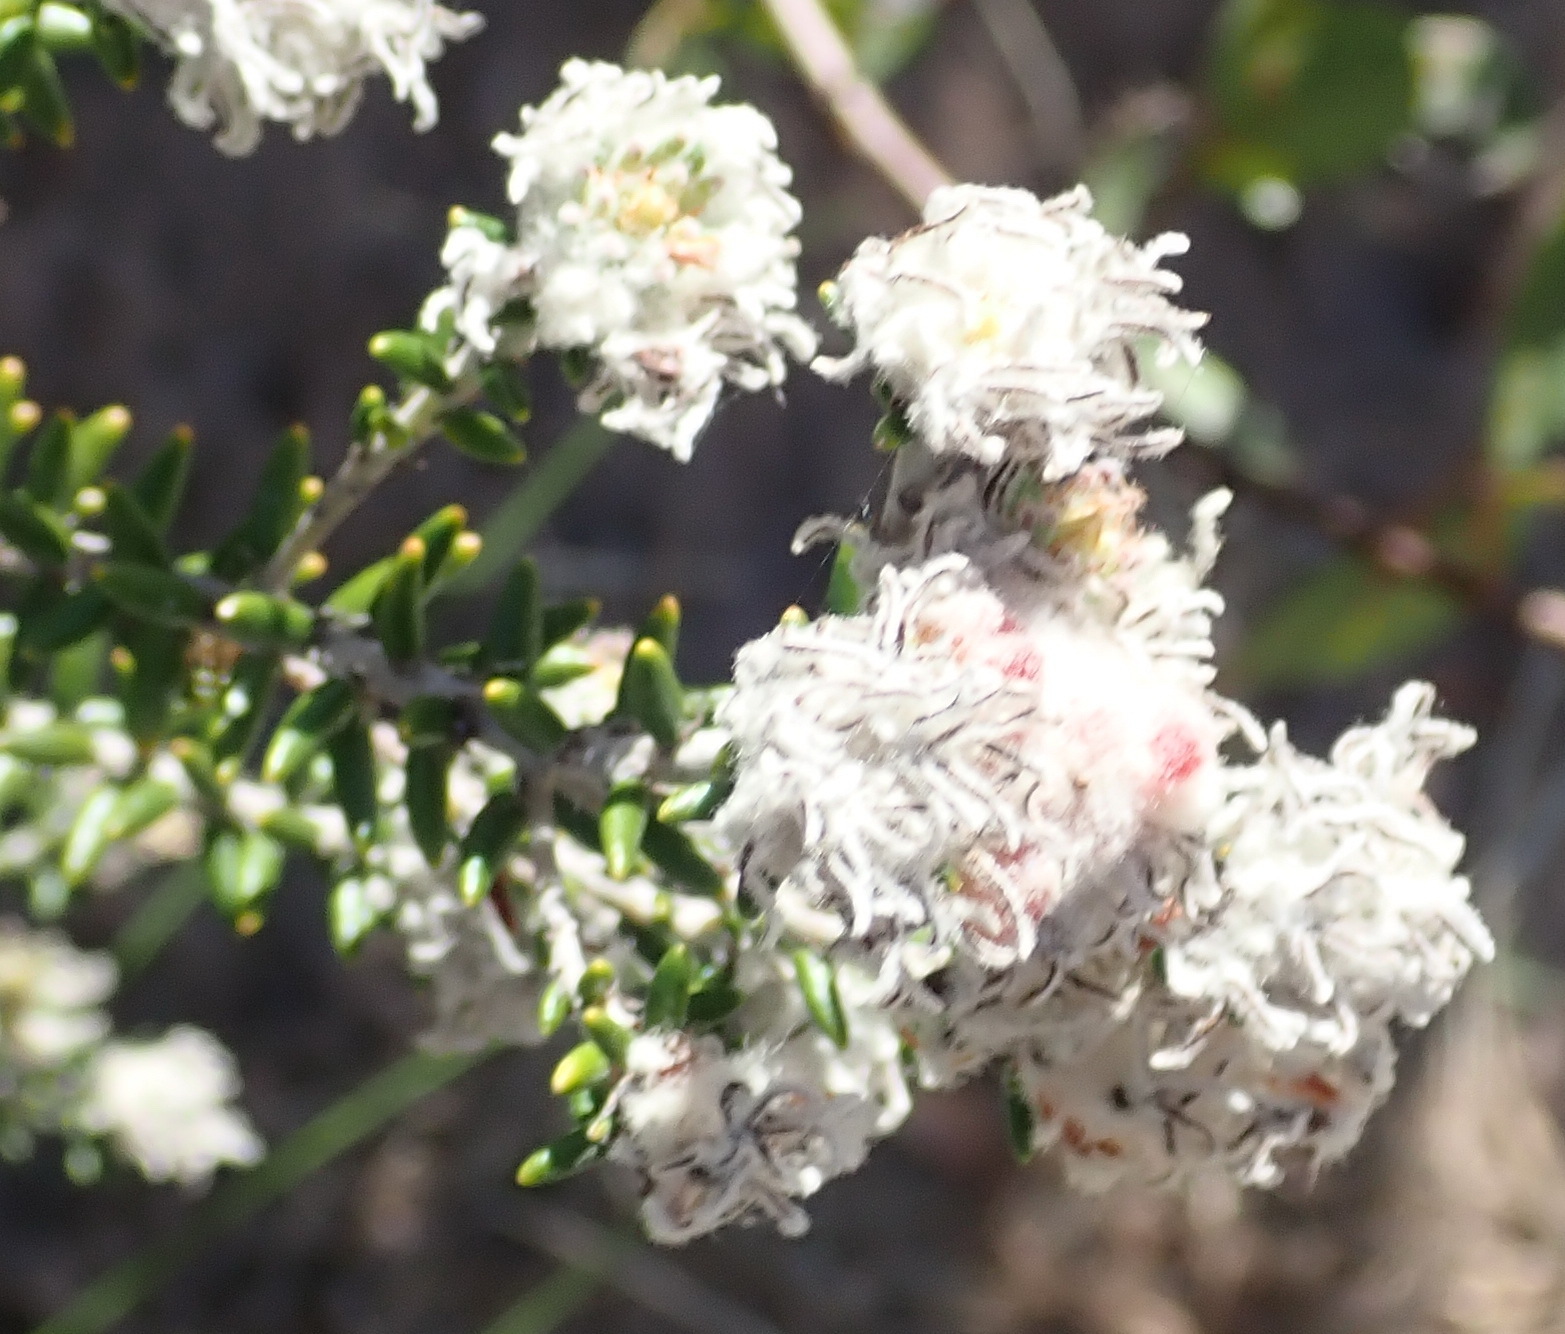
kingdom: Plantae
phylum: Tracheophyta
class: Magnoliopsida
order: Rosales
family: Rhamnaceae
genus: Trichocephalus
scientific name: Trichocephalus stipularis
